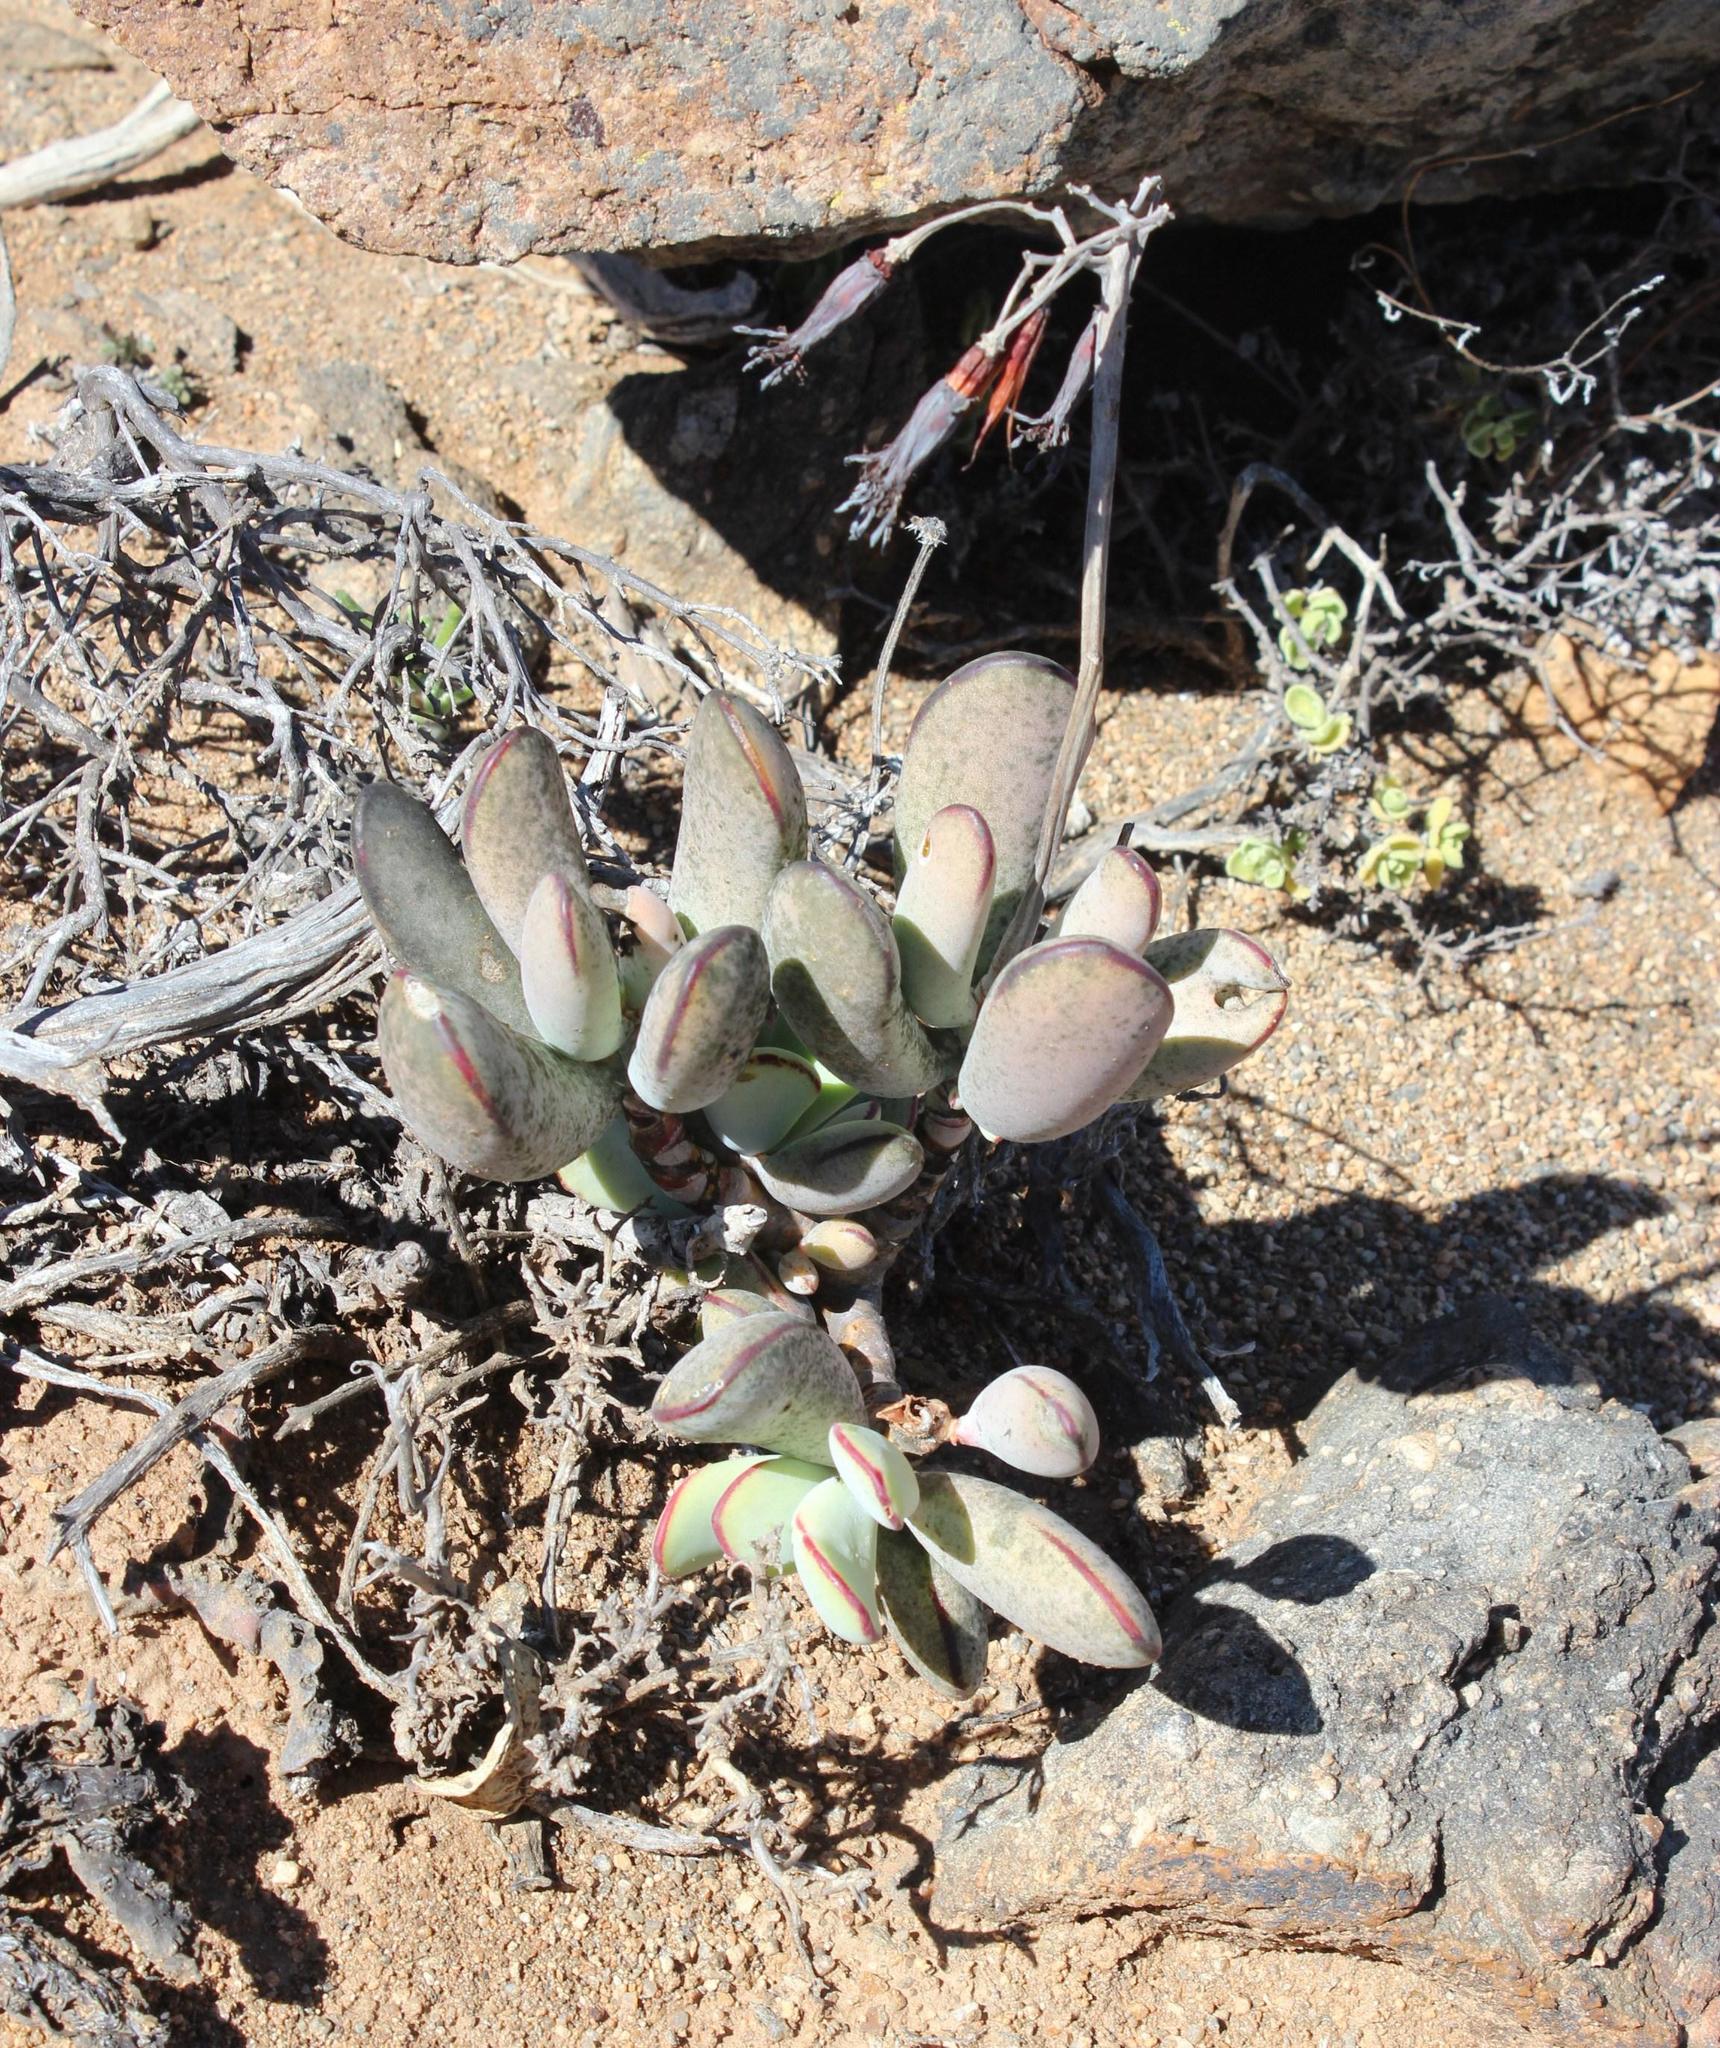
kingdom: Plantae
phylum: Tracheophyta
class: Magnoliopsida
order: Saxifragales
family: Crassulaceae
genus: Cotyledon
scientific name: Cotyledon orbiculata
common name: Pig's ear
